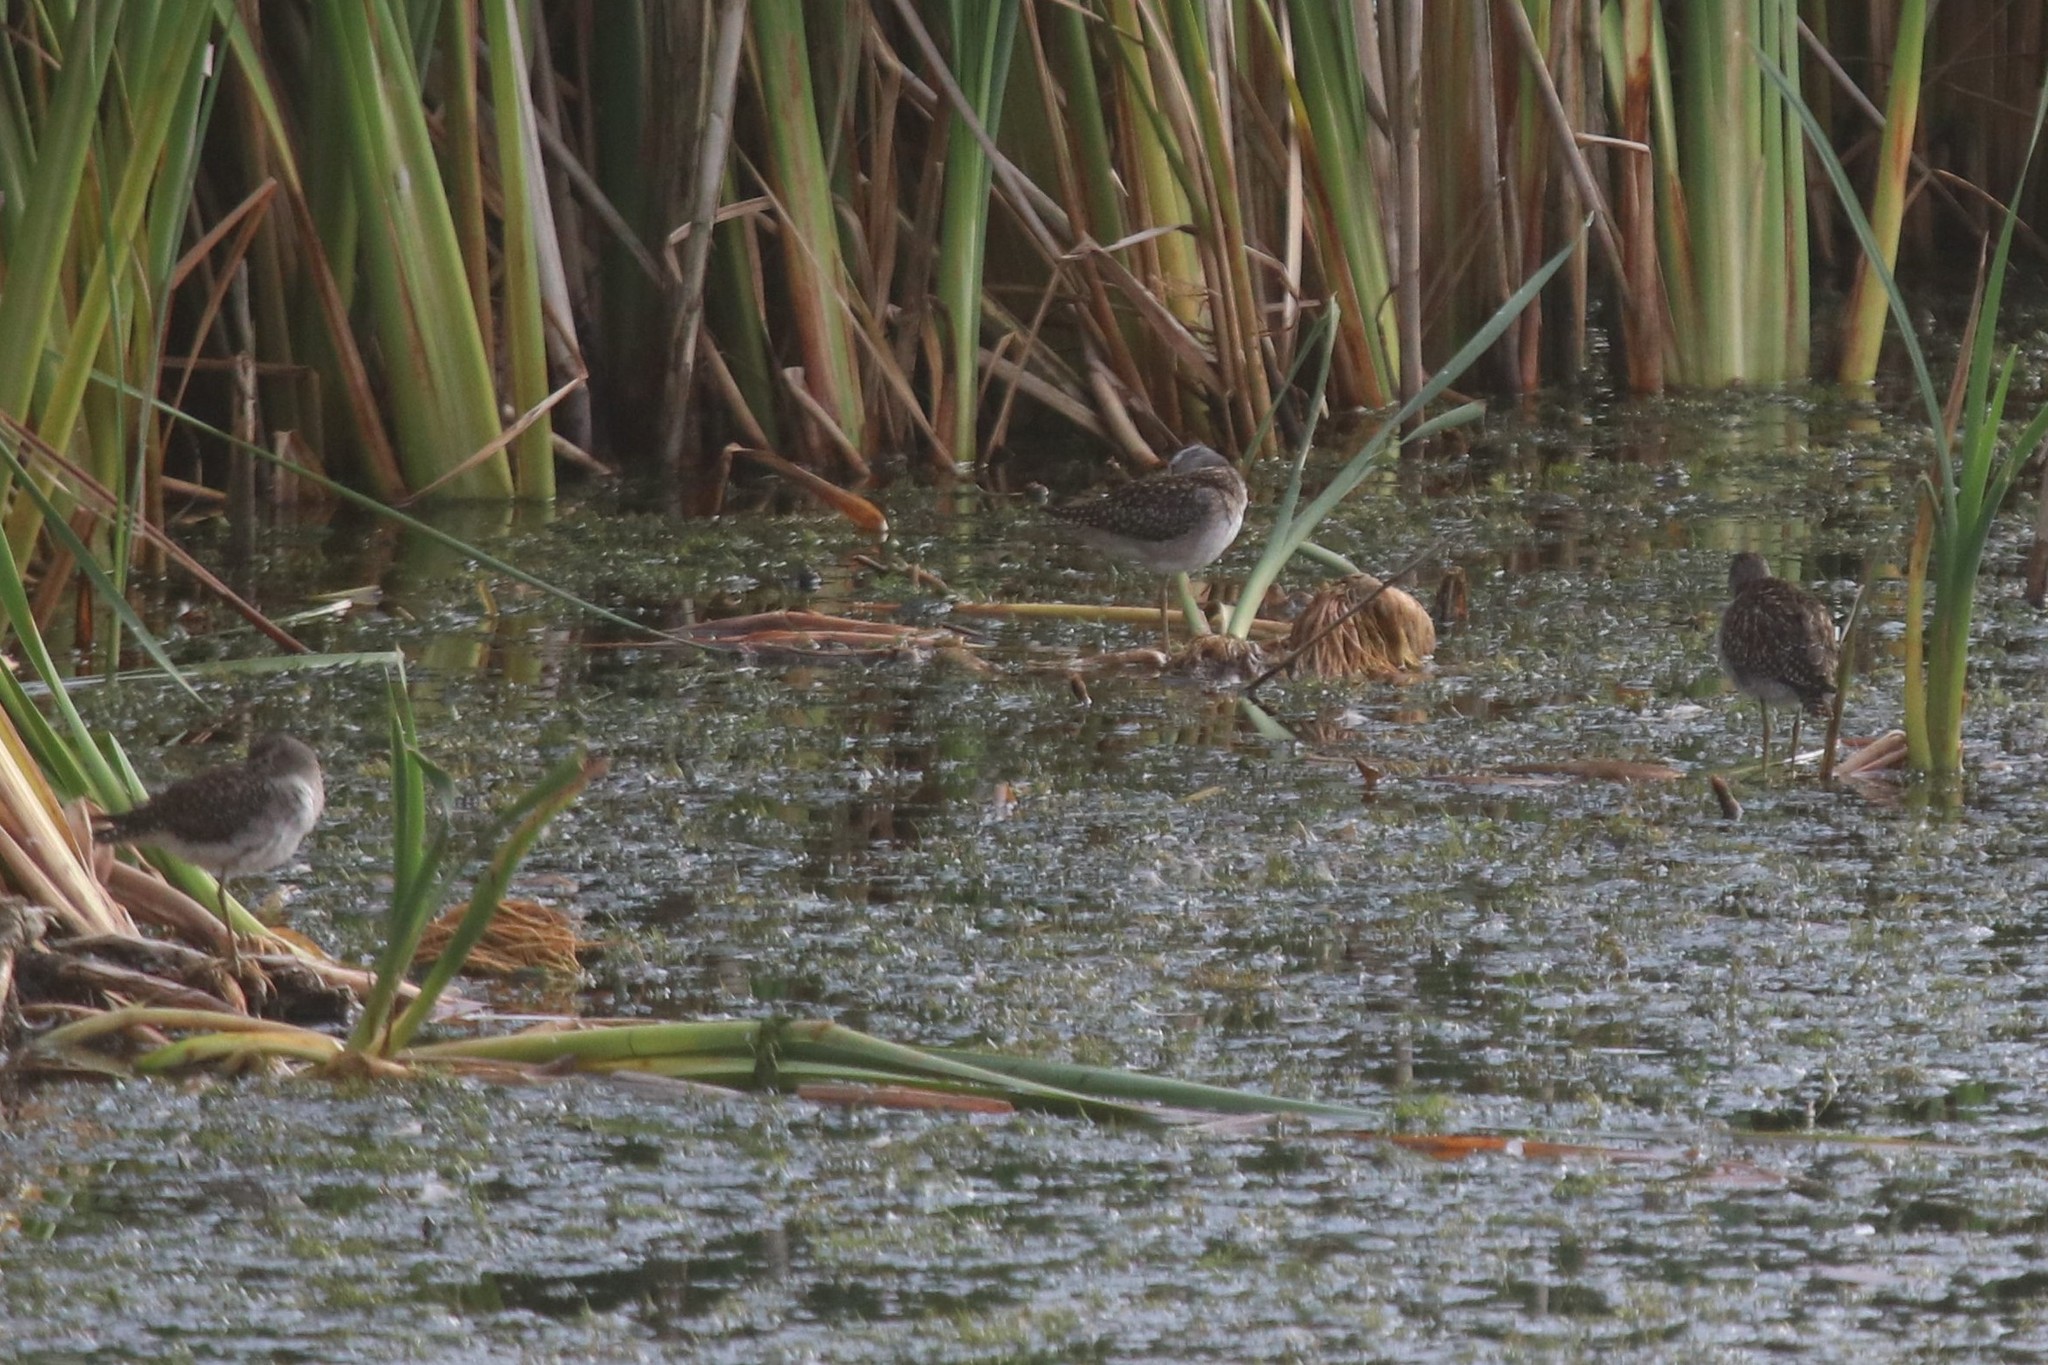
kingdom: Animalia
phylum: Chordata
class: Aves
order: Charadriiformes
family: Scolopacidae
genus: Tringa
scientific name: Tringa glareola
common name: Wood sandpiper
